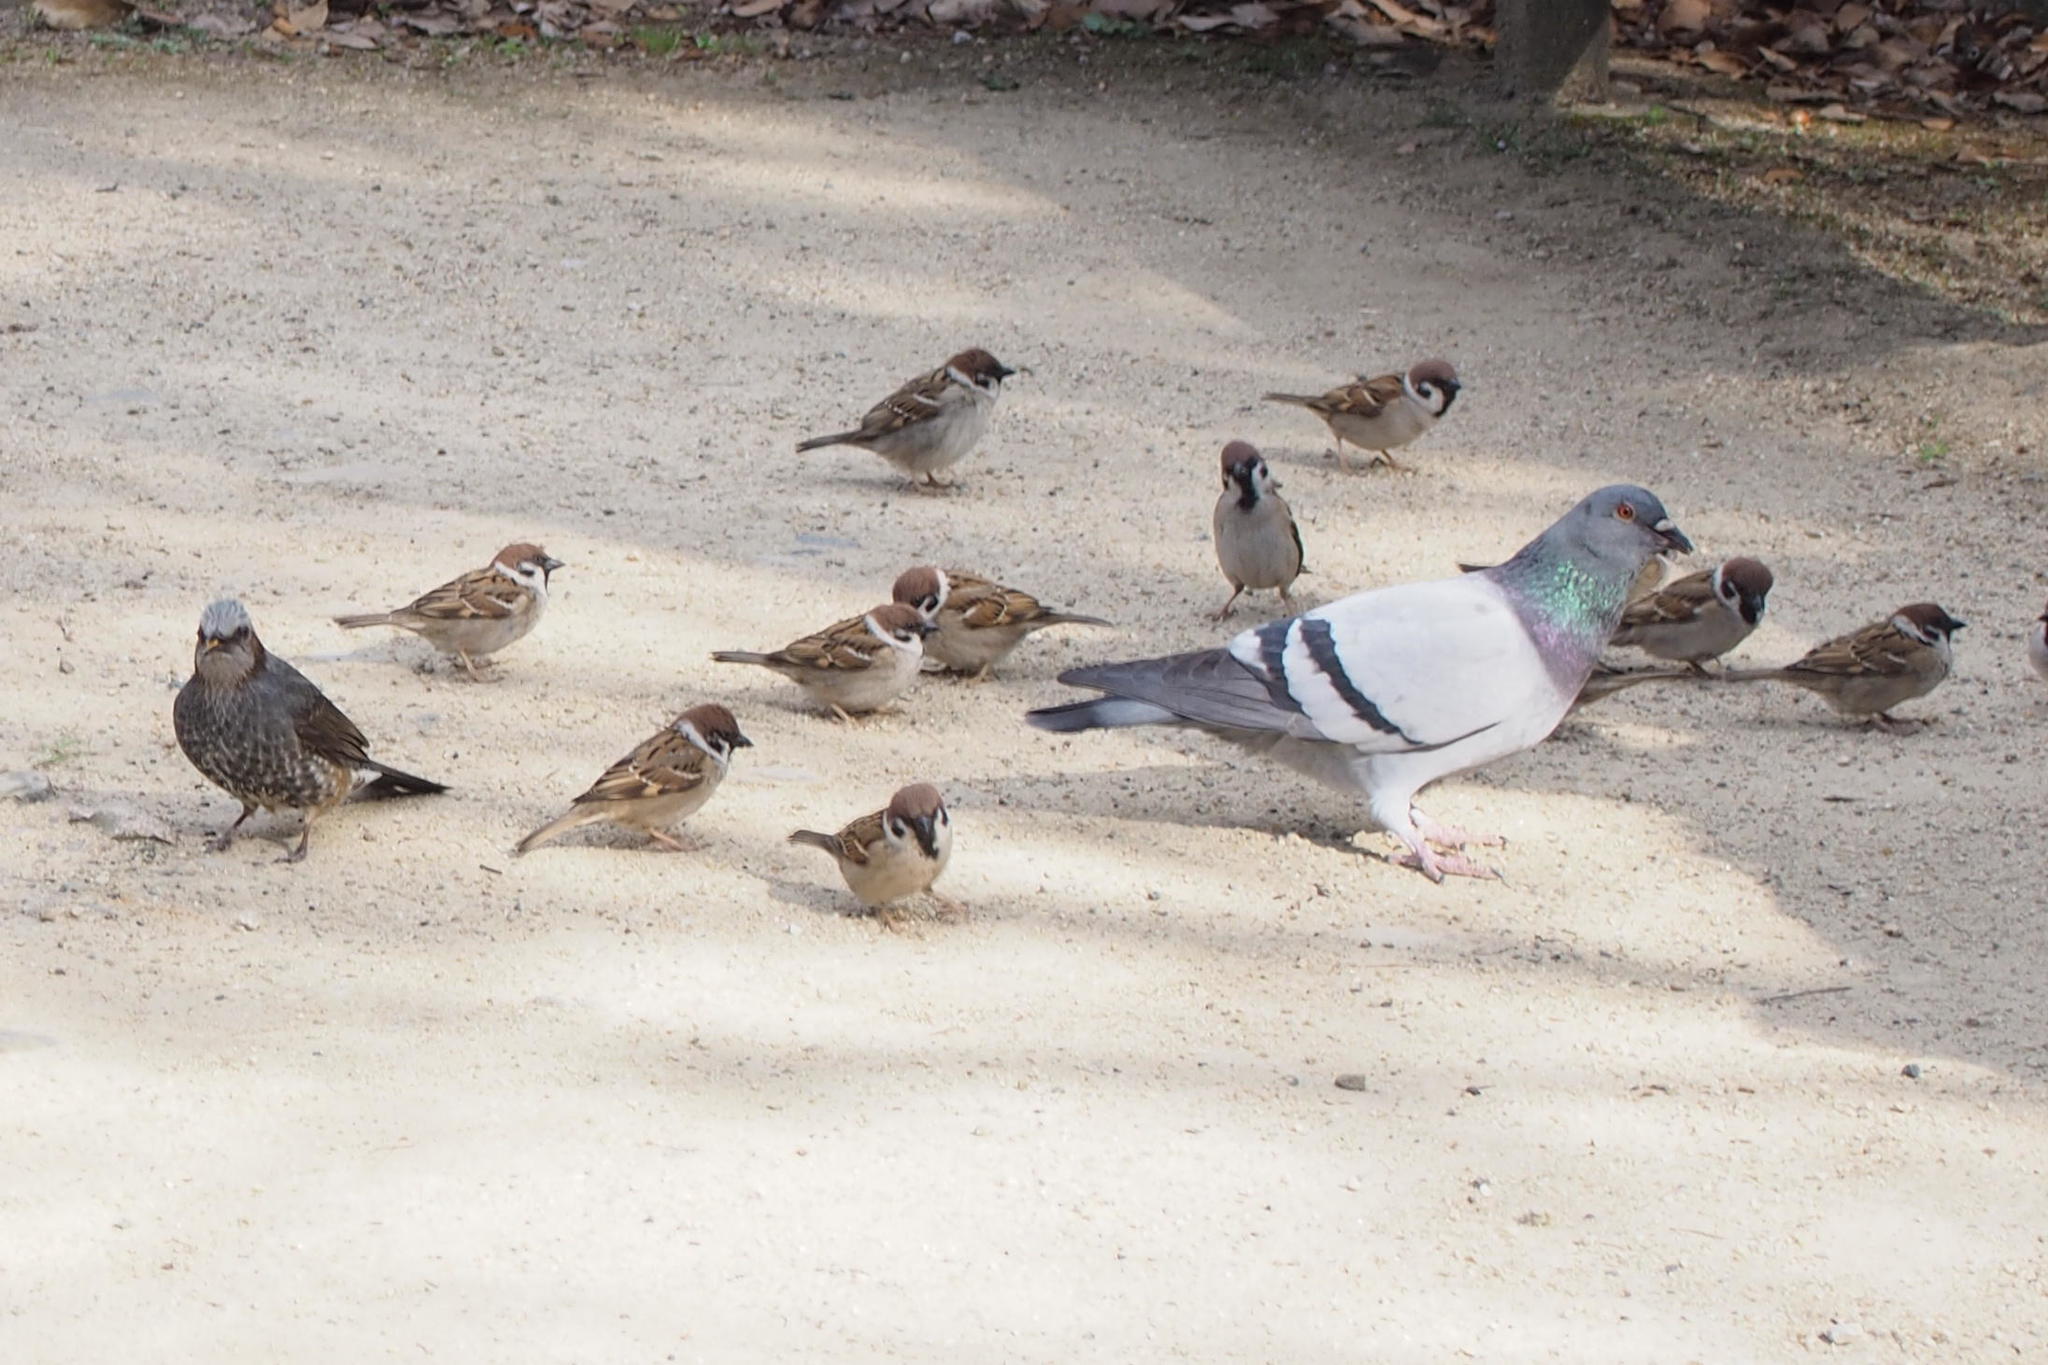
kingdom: Animalia
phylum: Chordata
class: Aves
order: Passeriformes
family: Pycnonotidae
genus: Hypsipetes
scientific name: Hypsipetes amaurotis
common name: Brown-eared bulbul
